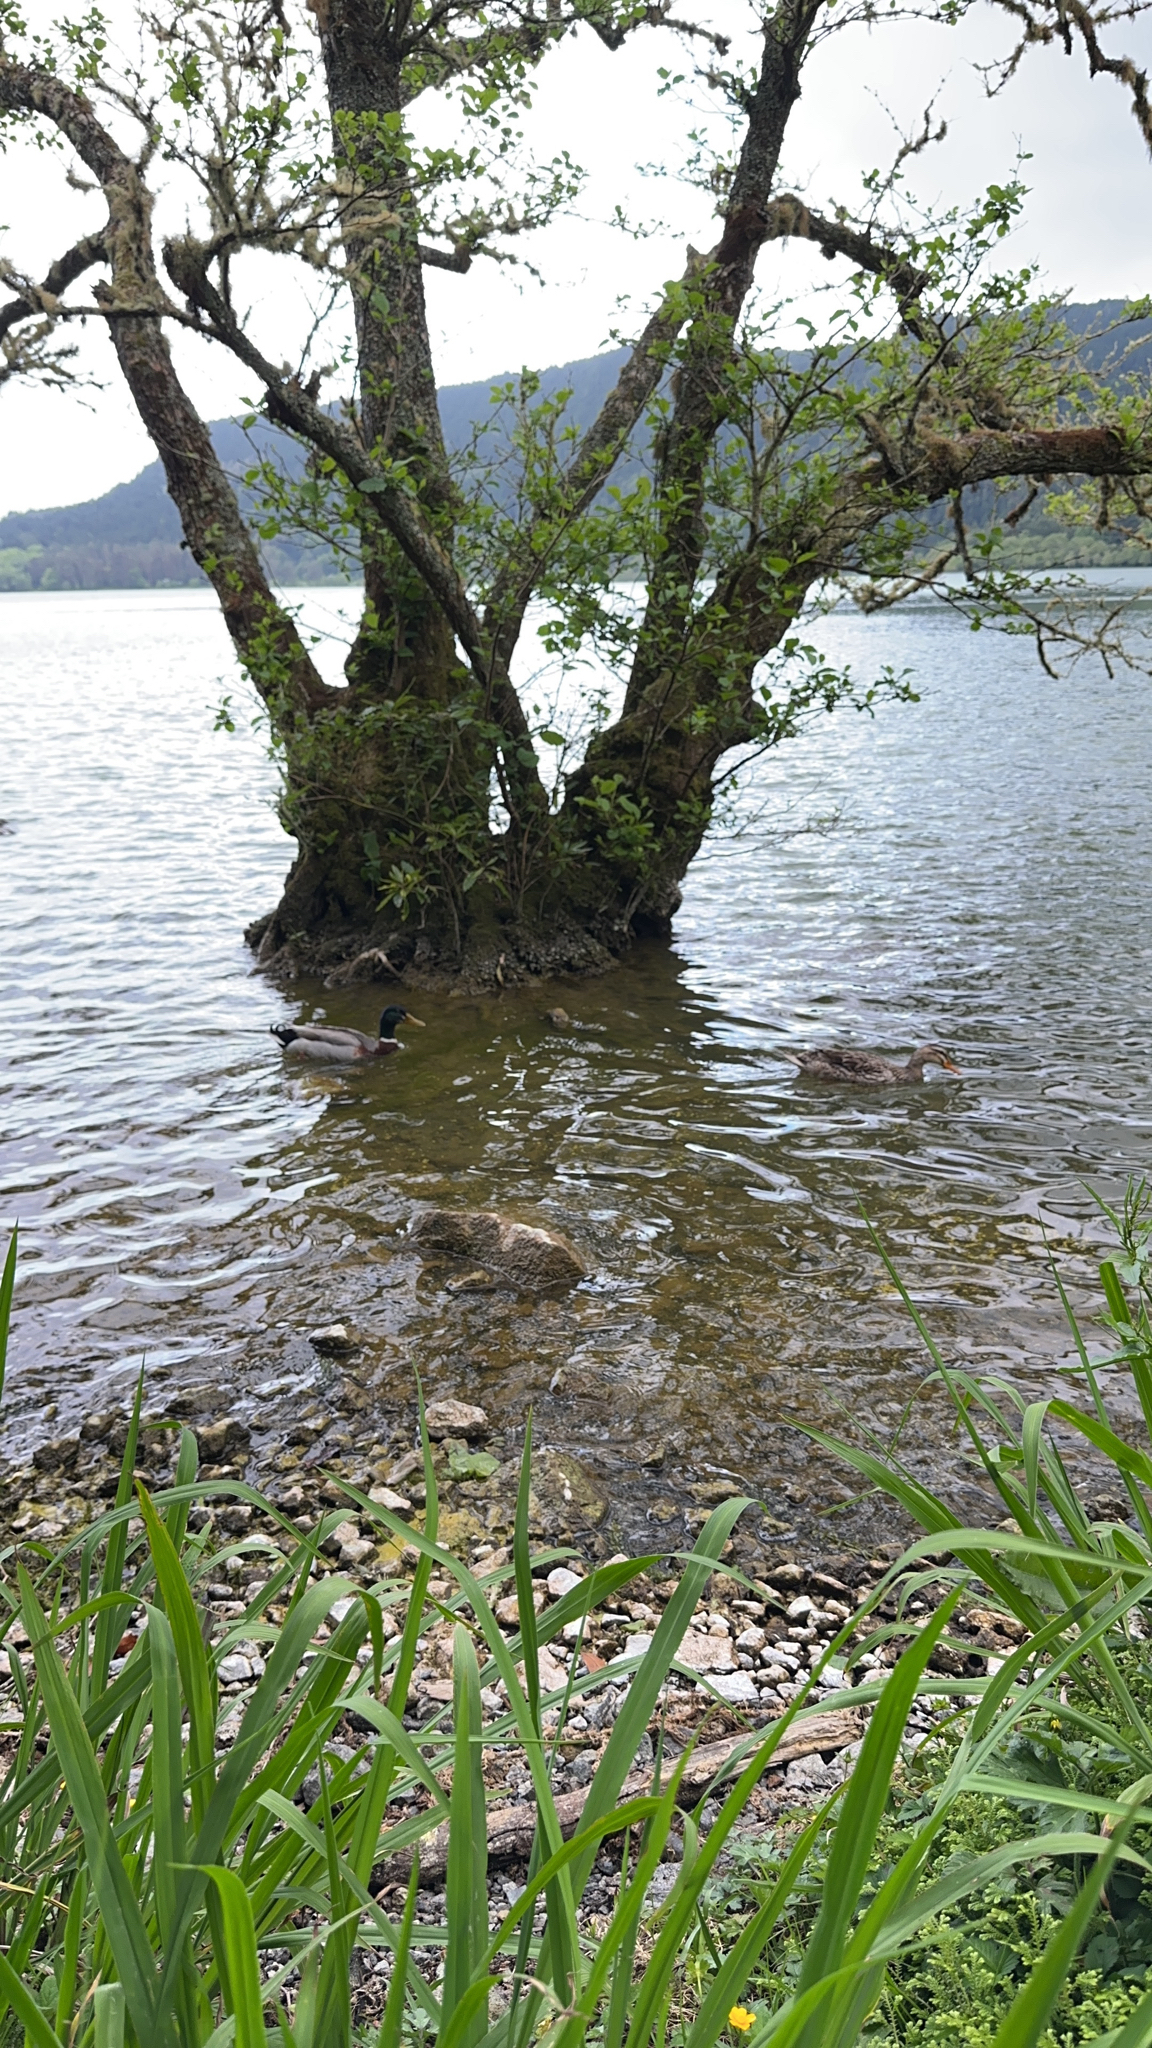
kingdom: Animalia
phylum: Chordata
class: Aves
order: Anseriformes
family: Anatidae
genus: Anas
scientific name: Anas platyrhynchos
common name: Mallard
